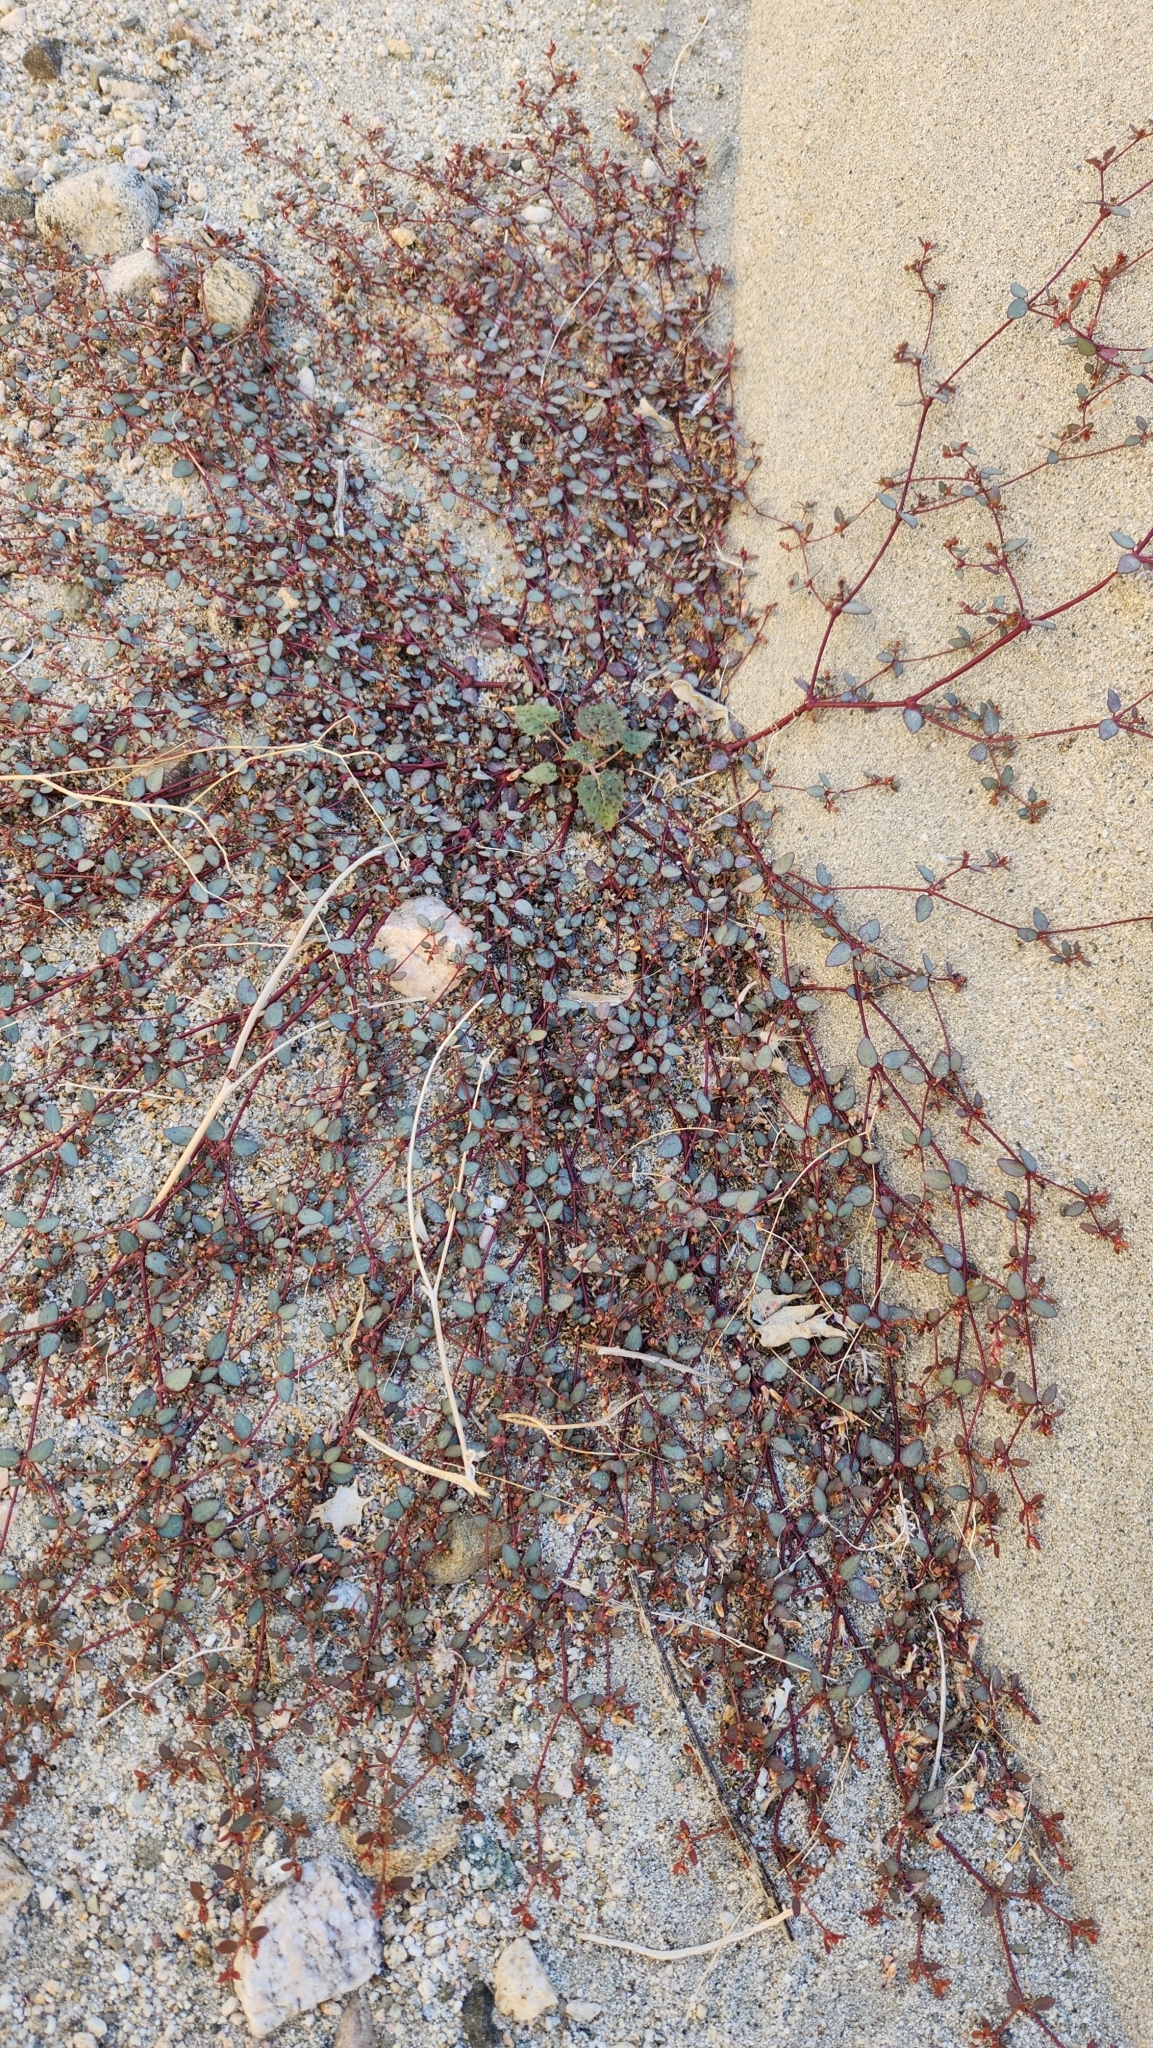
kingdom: Plantae
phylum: Tracheophyta
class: Magnoliopsida
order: Malpighiales
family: Euphorbiaceae
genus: Euphorbia
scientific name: Euphorbia parishii
